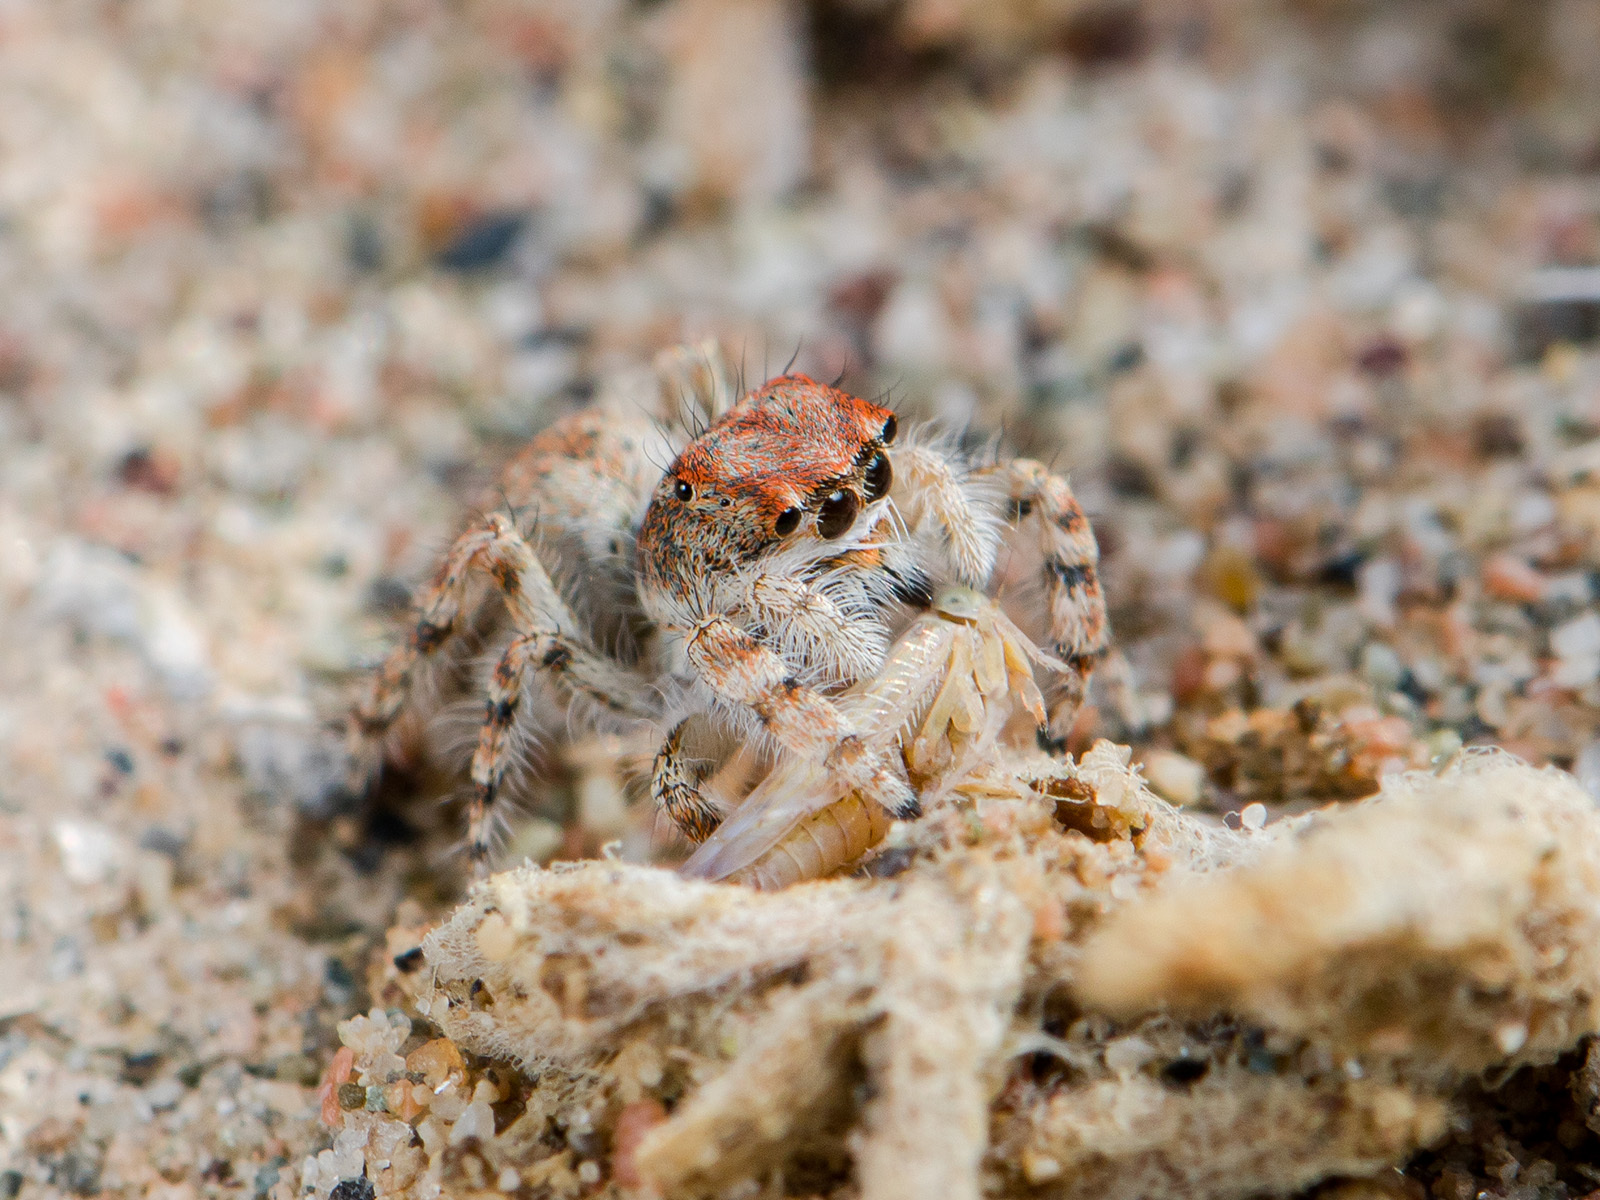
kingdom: Animalia
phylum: Arthropoda
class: Arachnida
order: Araneae
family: Salticidae
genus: Yllenus
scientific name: Yllenus zyuzini
